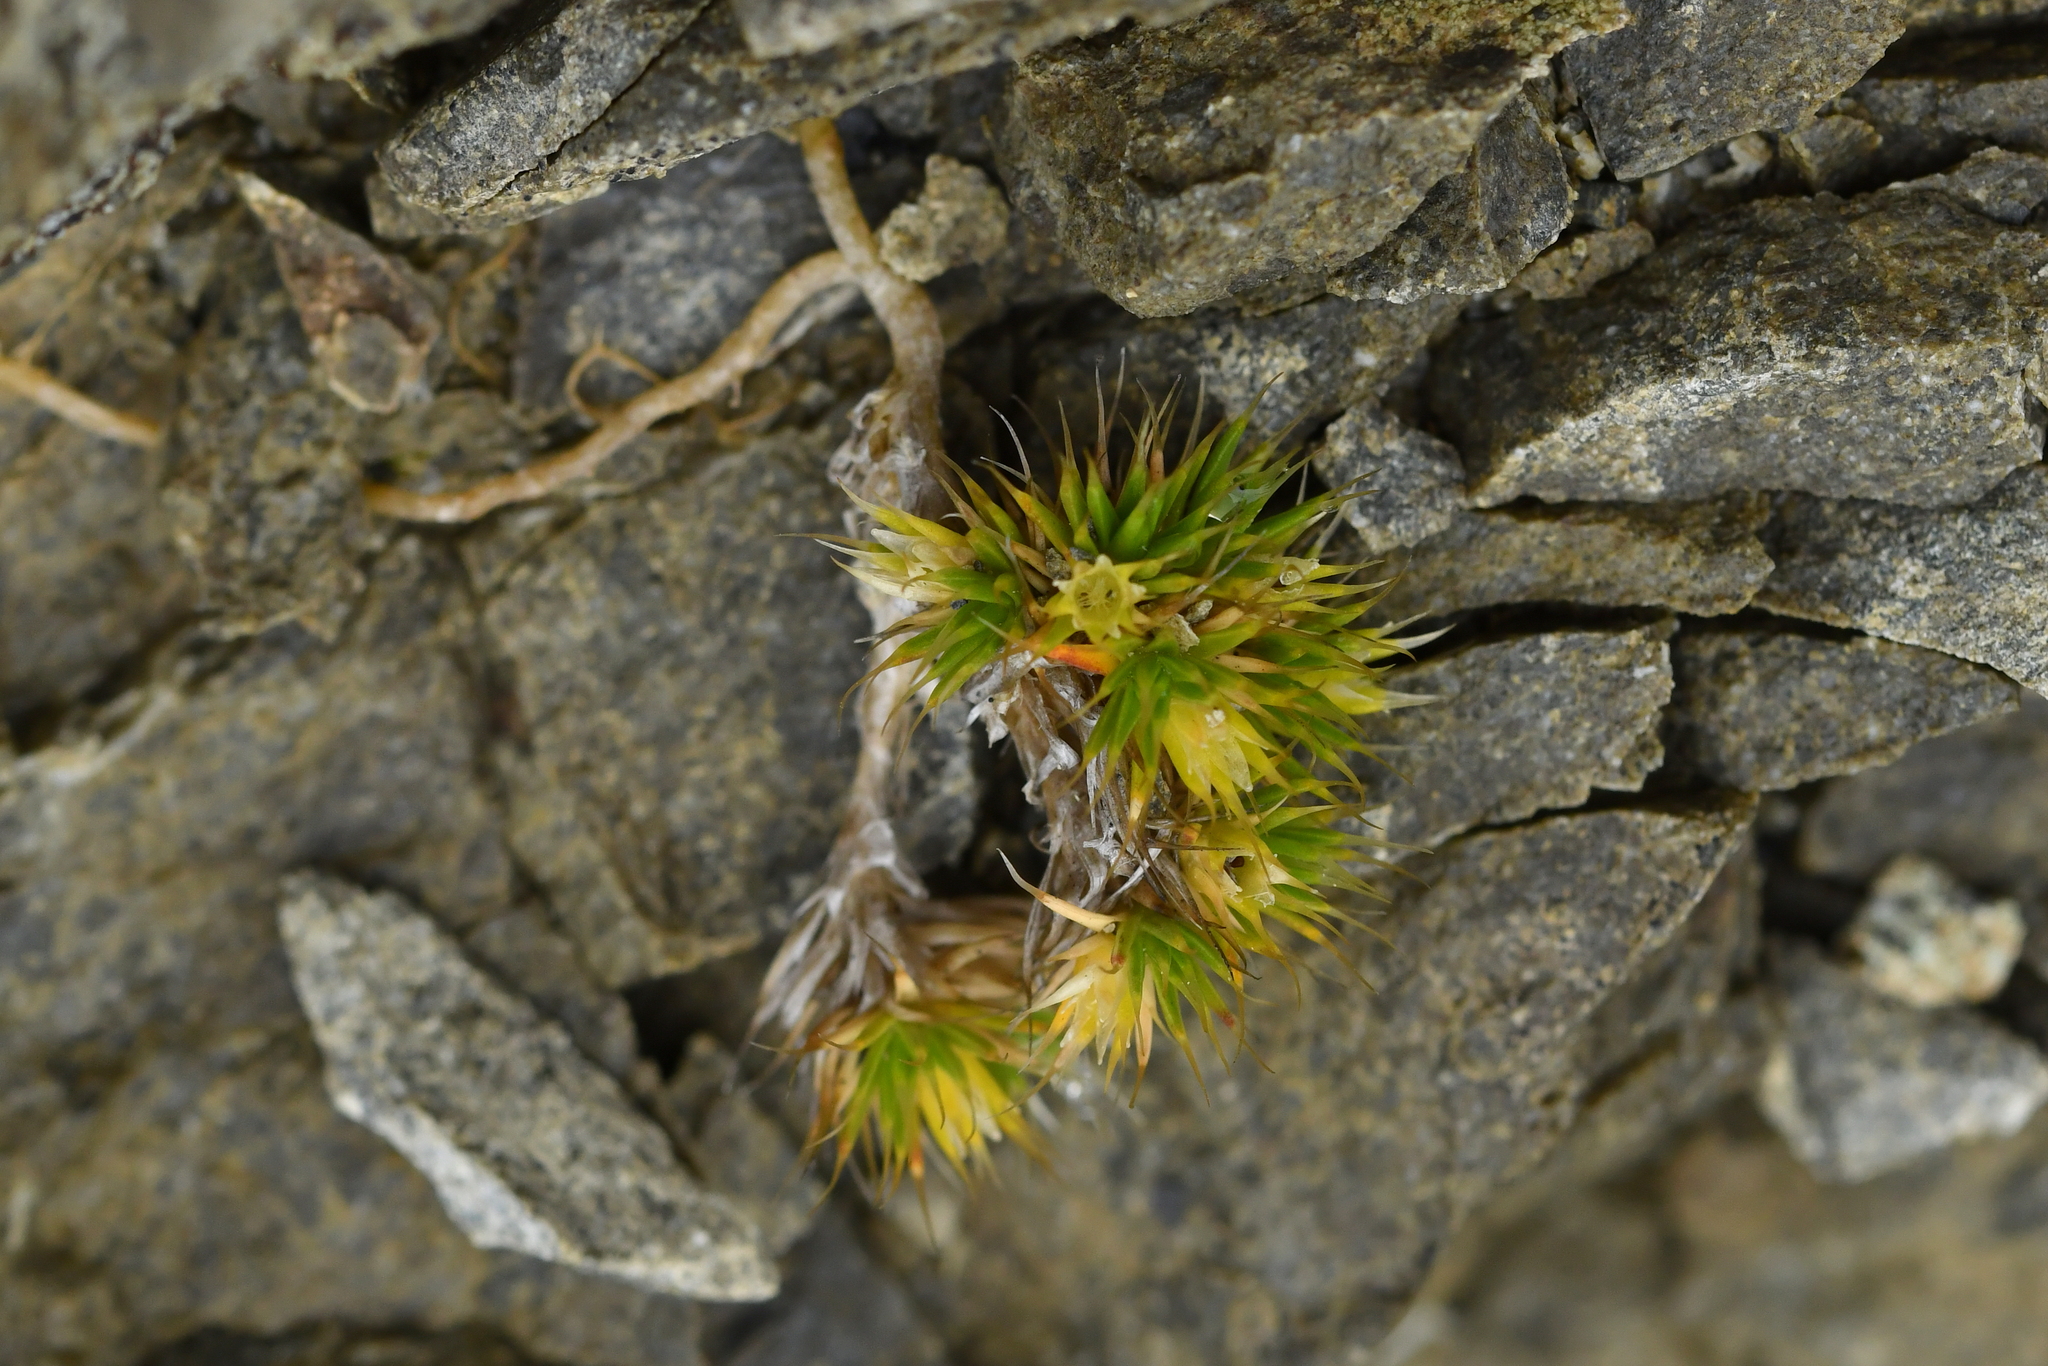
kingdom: Plantae
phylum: Tracheophyta
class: Magnoliopsida
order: Caryophyllales
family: Caryophyllaceae
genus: Colobanthus
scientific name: Colobanthus acicularis
